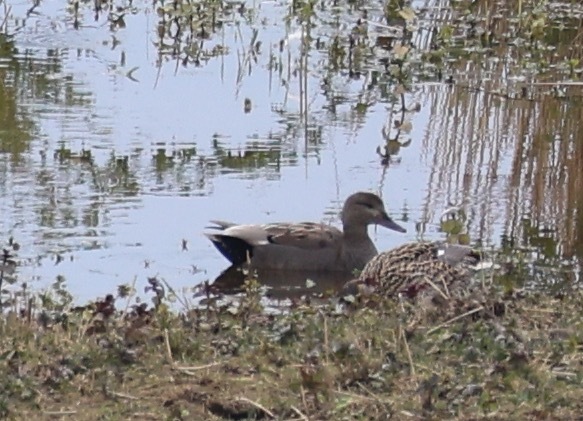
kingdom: Animalia
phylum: Chordata
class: Aves
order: Anseriformes
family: Anatidae
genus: Mareca
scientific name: Mareca strepera
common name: Gadwall
